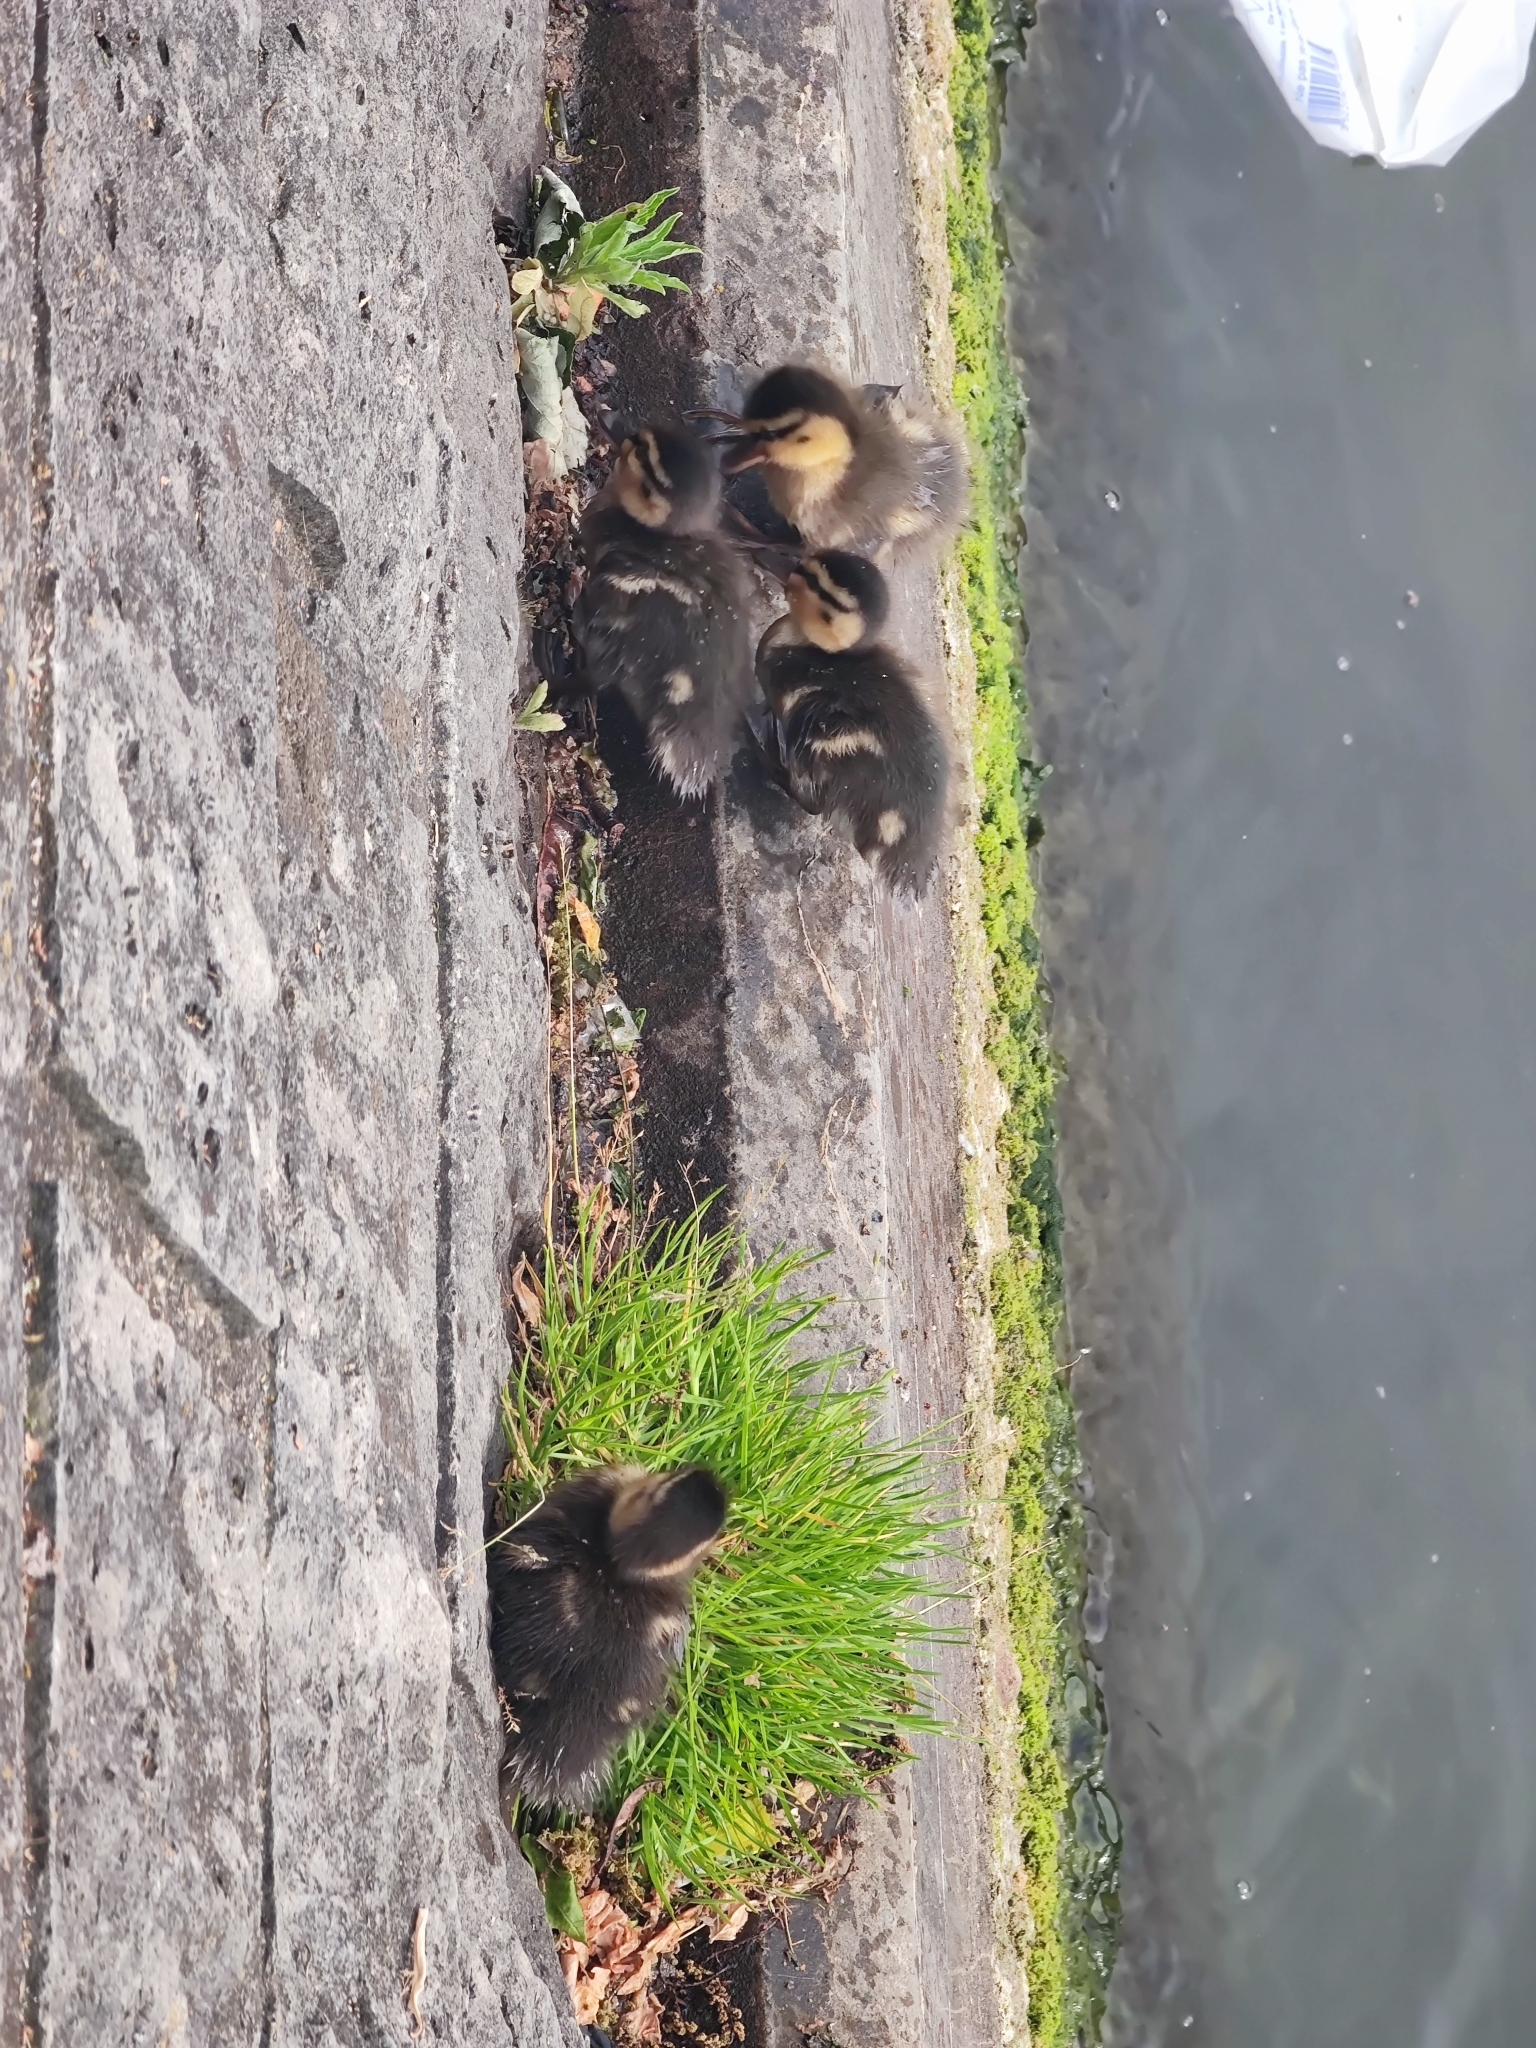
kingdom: Animalia
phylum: Chordata
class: Aves
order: Anseriformes
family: Anatidae
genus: Anas
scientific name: Anas platyrhynchos
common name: Mallard
